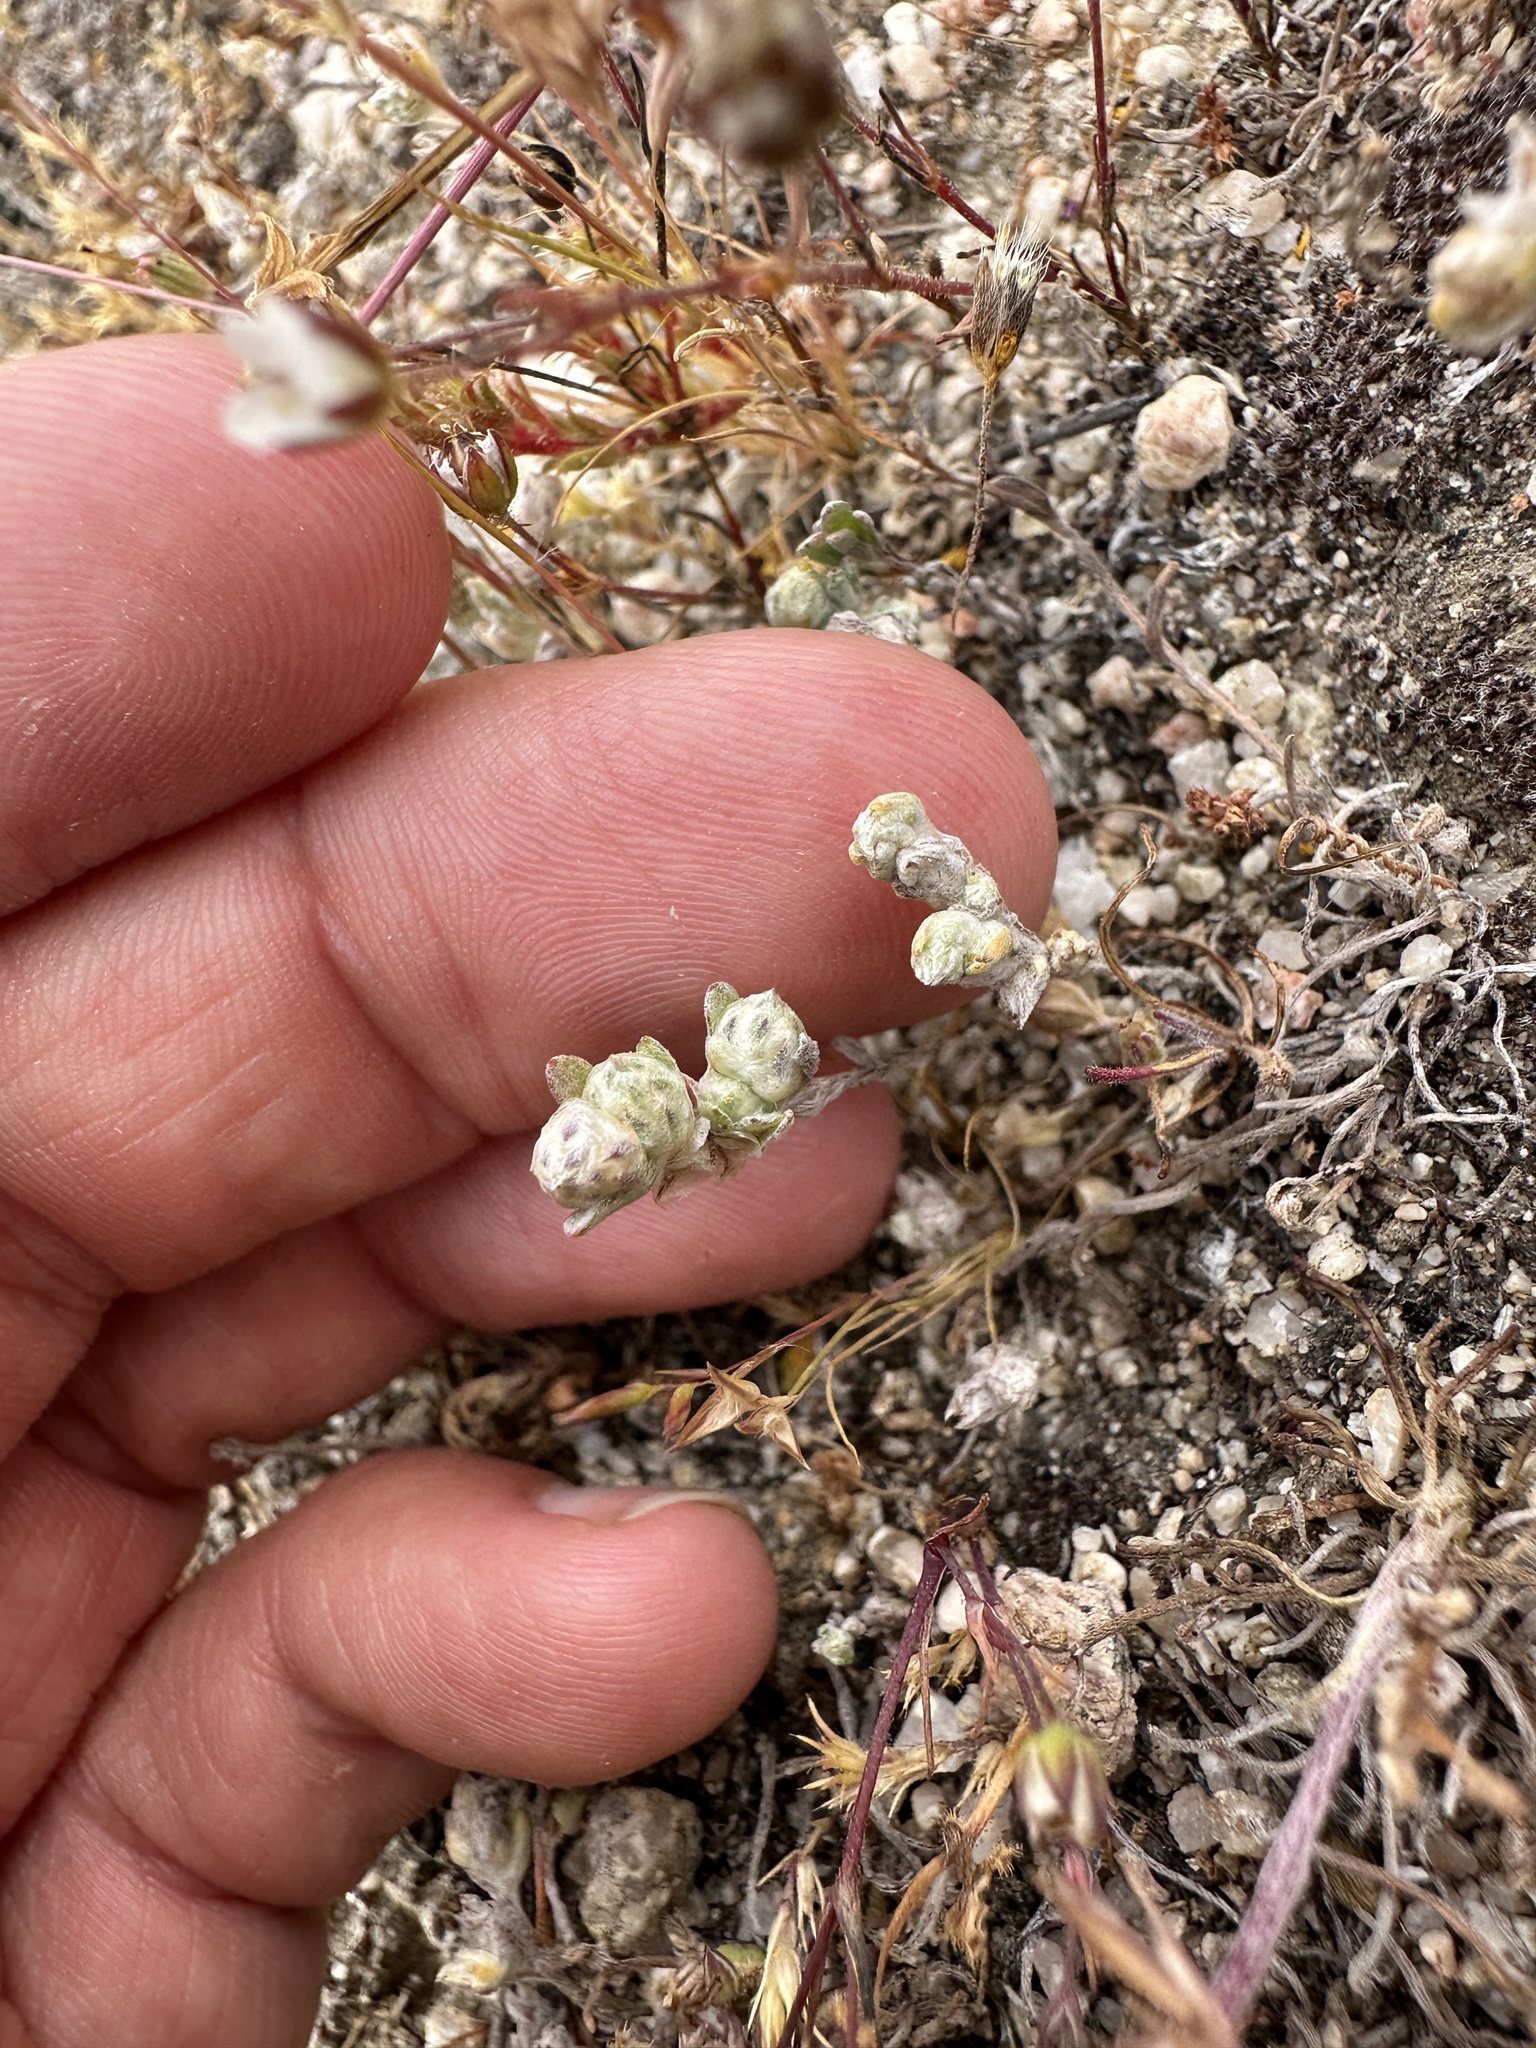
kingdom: Plantae
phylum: Tracheophyta
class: Magnoliopsida
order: Asterales
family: Asteraceae
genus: Stylocline
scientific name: Stylocline gnaphaloides
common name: Everlasting nest-straw
